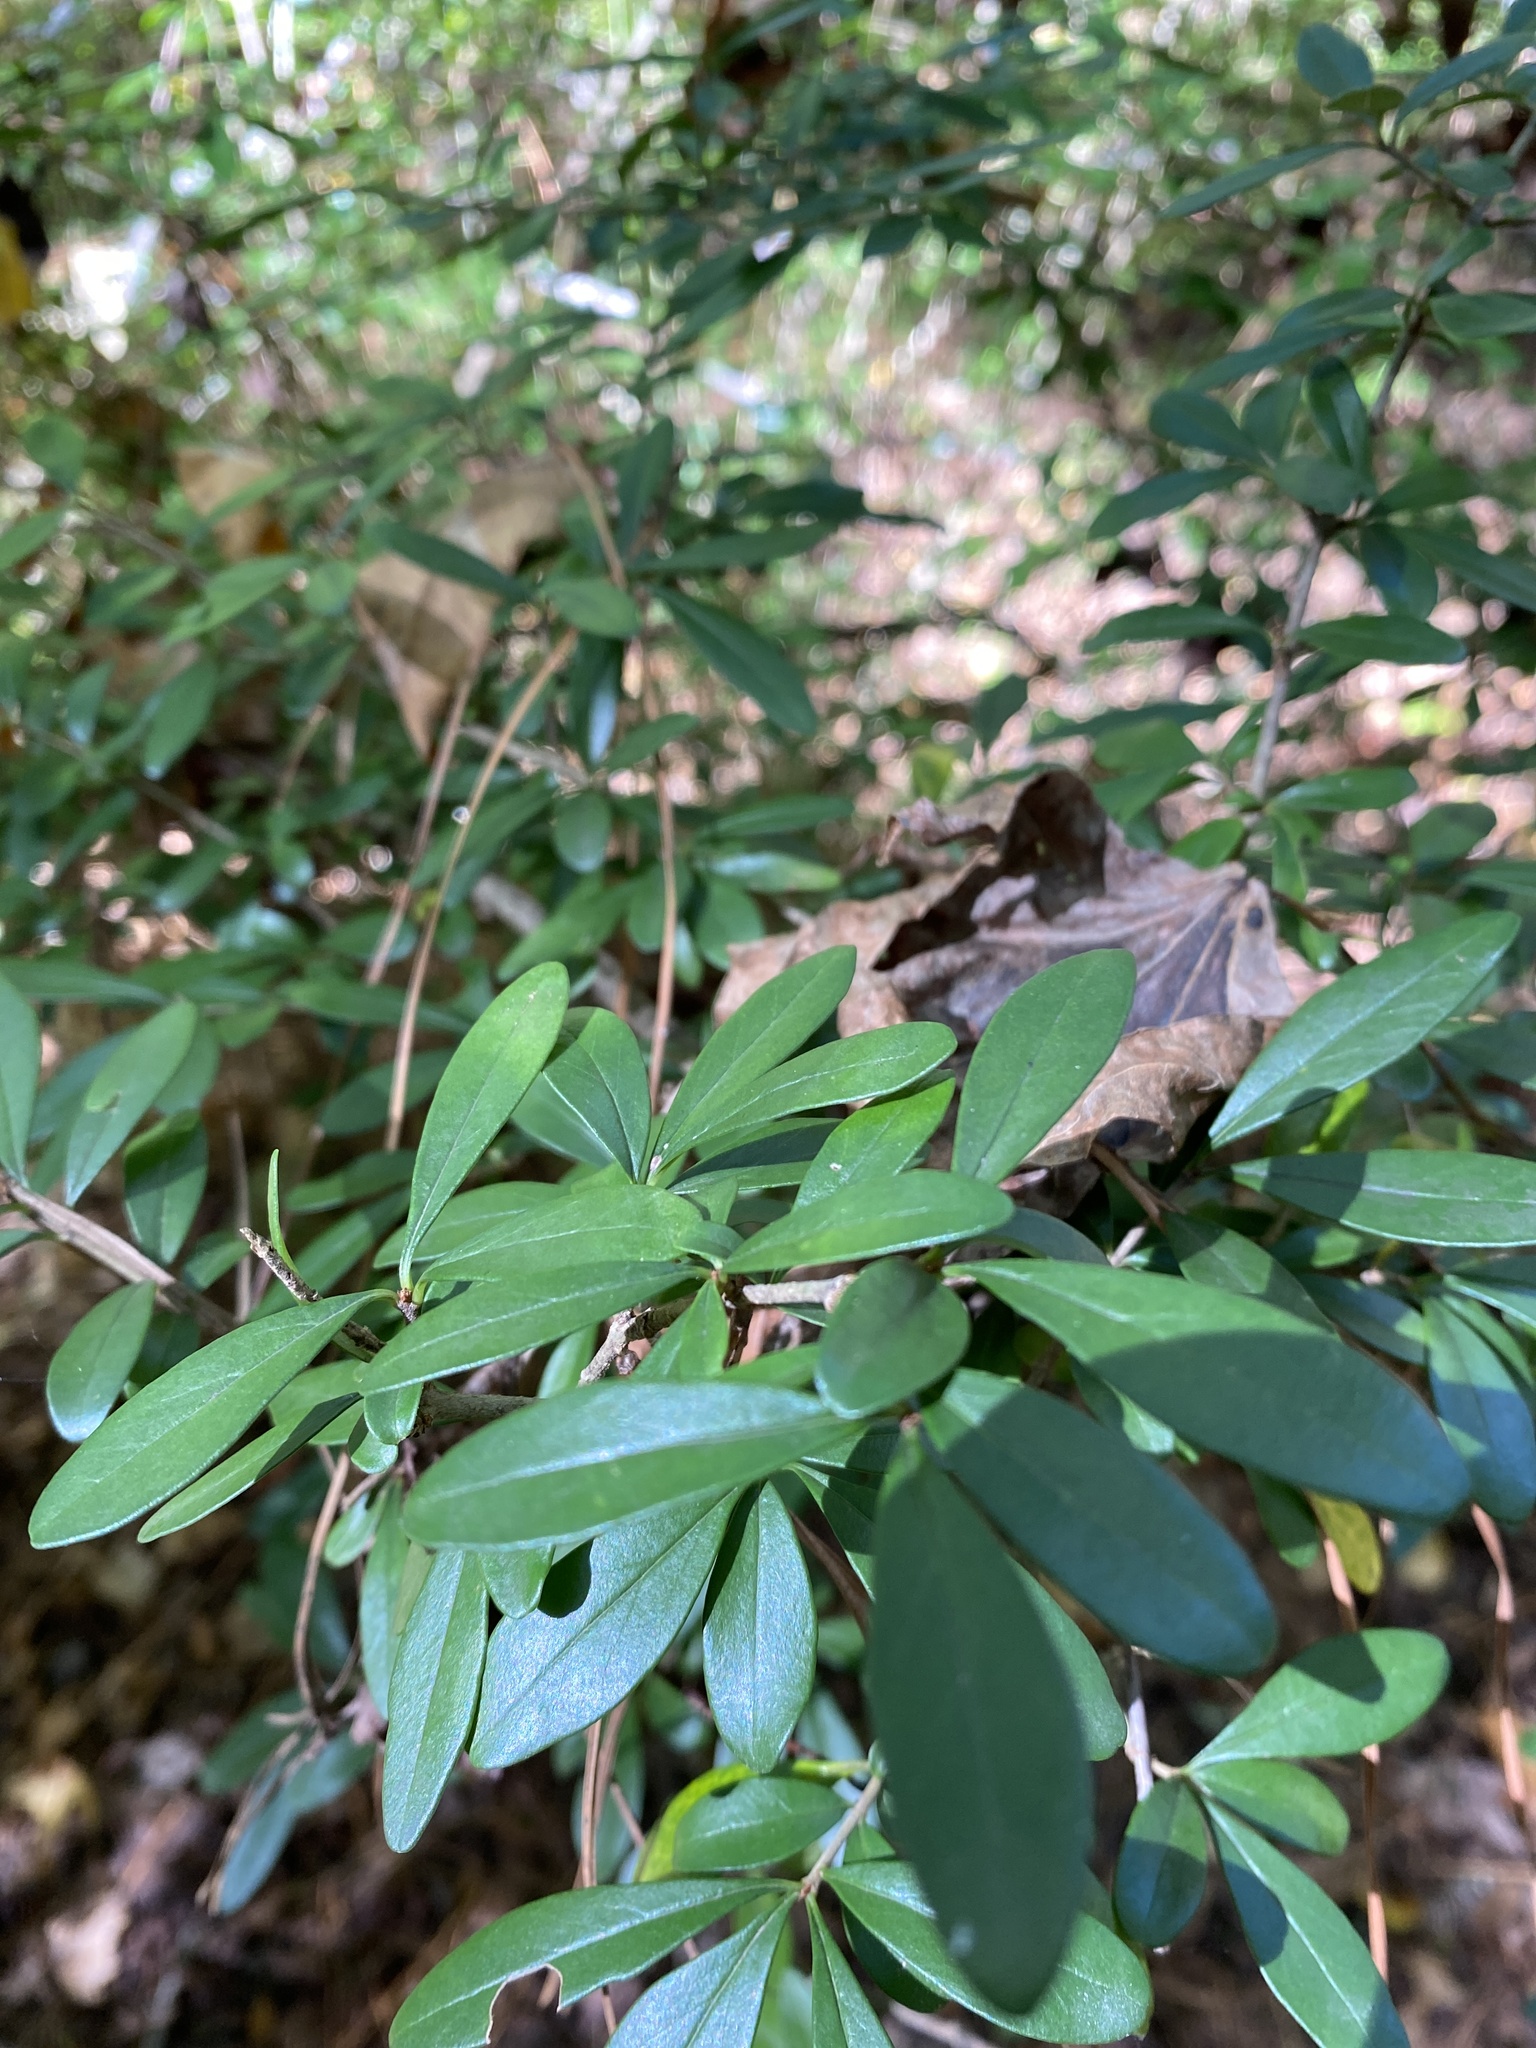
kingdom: Plantae
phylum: Tracheophyta
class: Magnoliopsida
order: Lamiales
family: Oleaceae
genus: Ligustrum
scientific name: Ligustrum quihoui
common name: Waxyleaf privet
